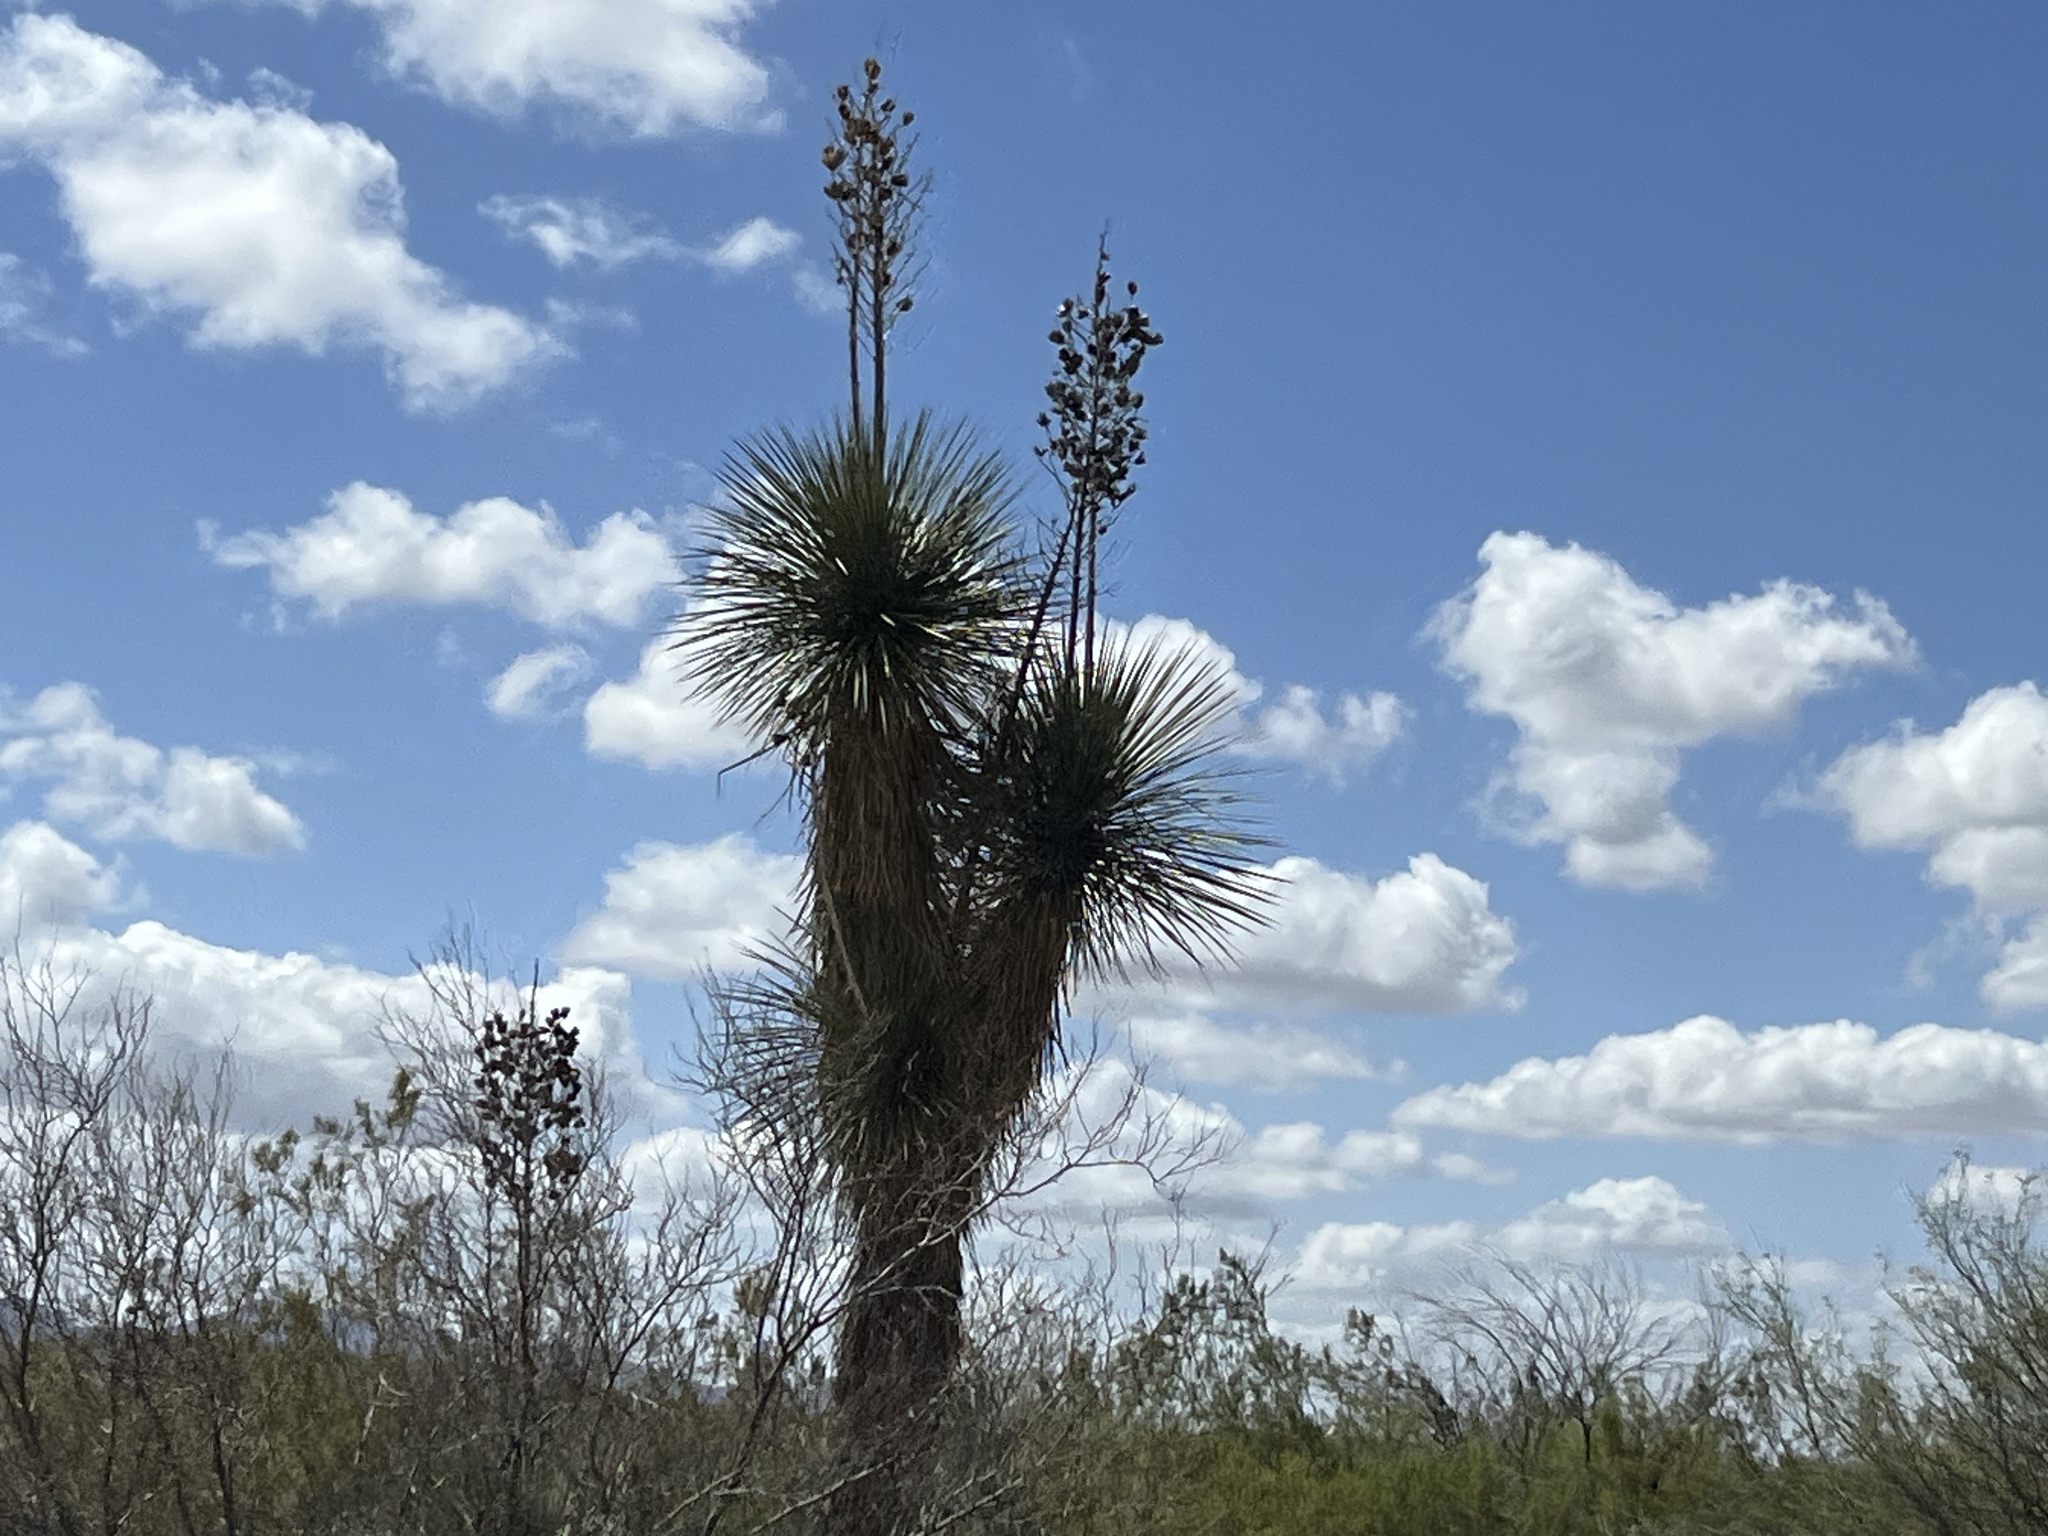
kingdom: Plantae
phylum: Tracheophyta
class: Liliopsida
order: Asparagales
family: Asparagaceae
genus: Yucca
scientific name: Yucca elata
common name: Palmella
